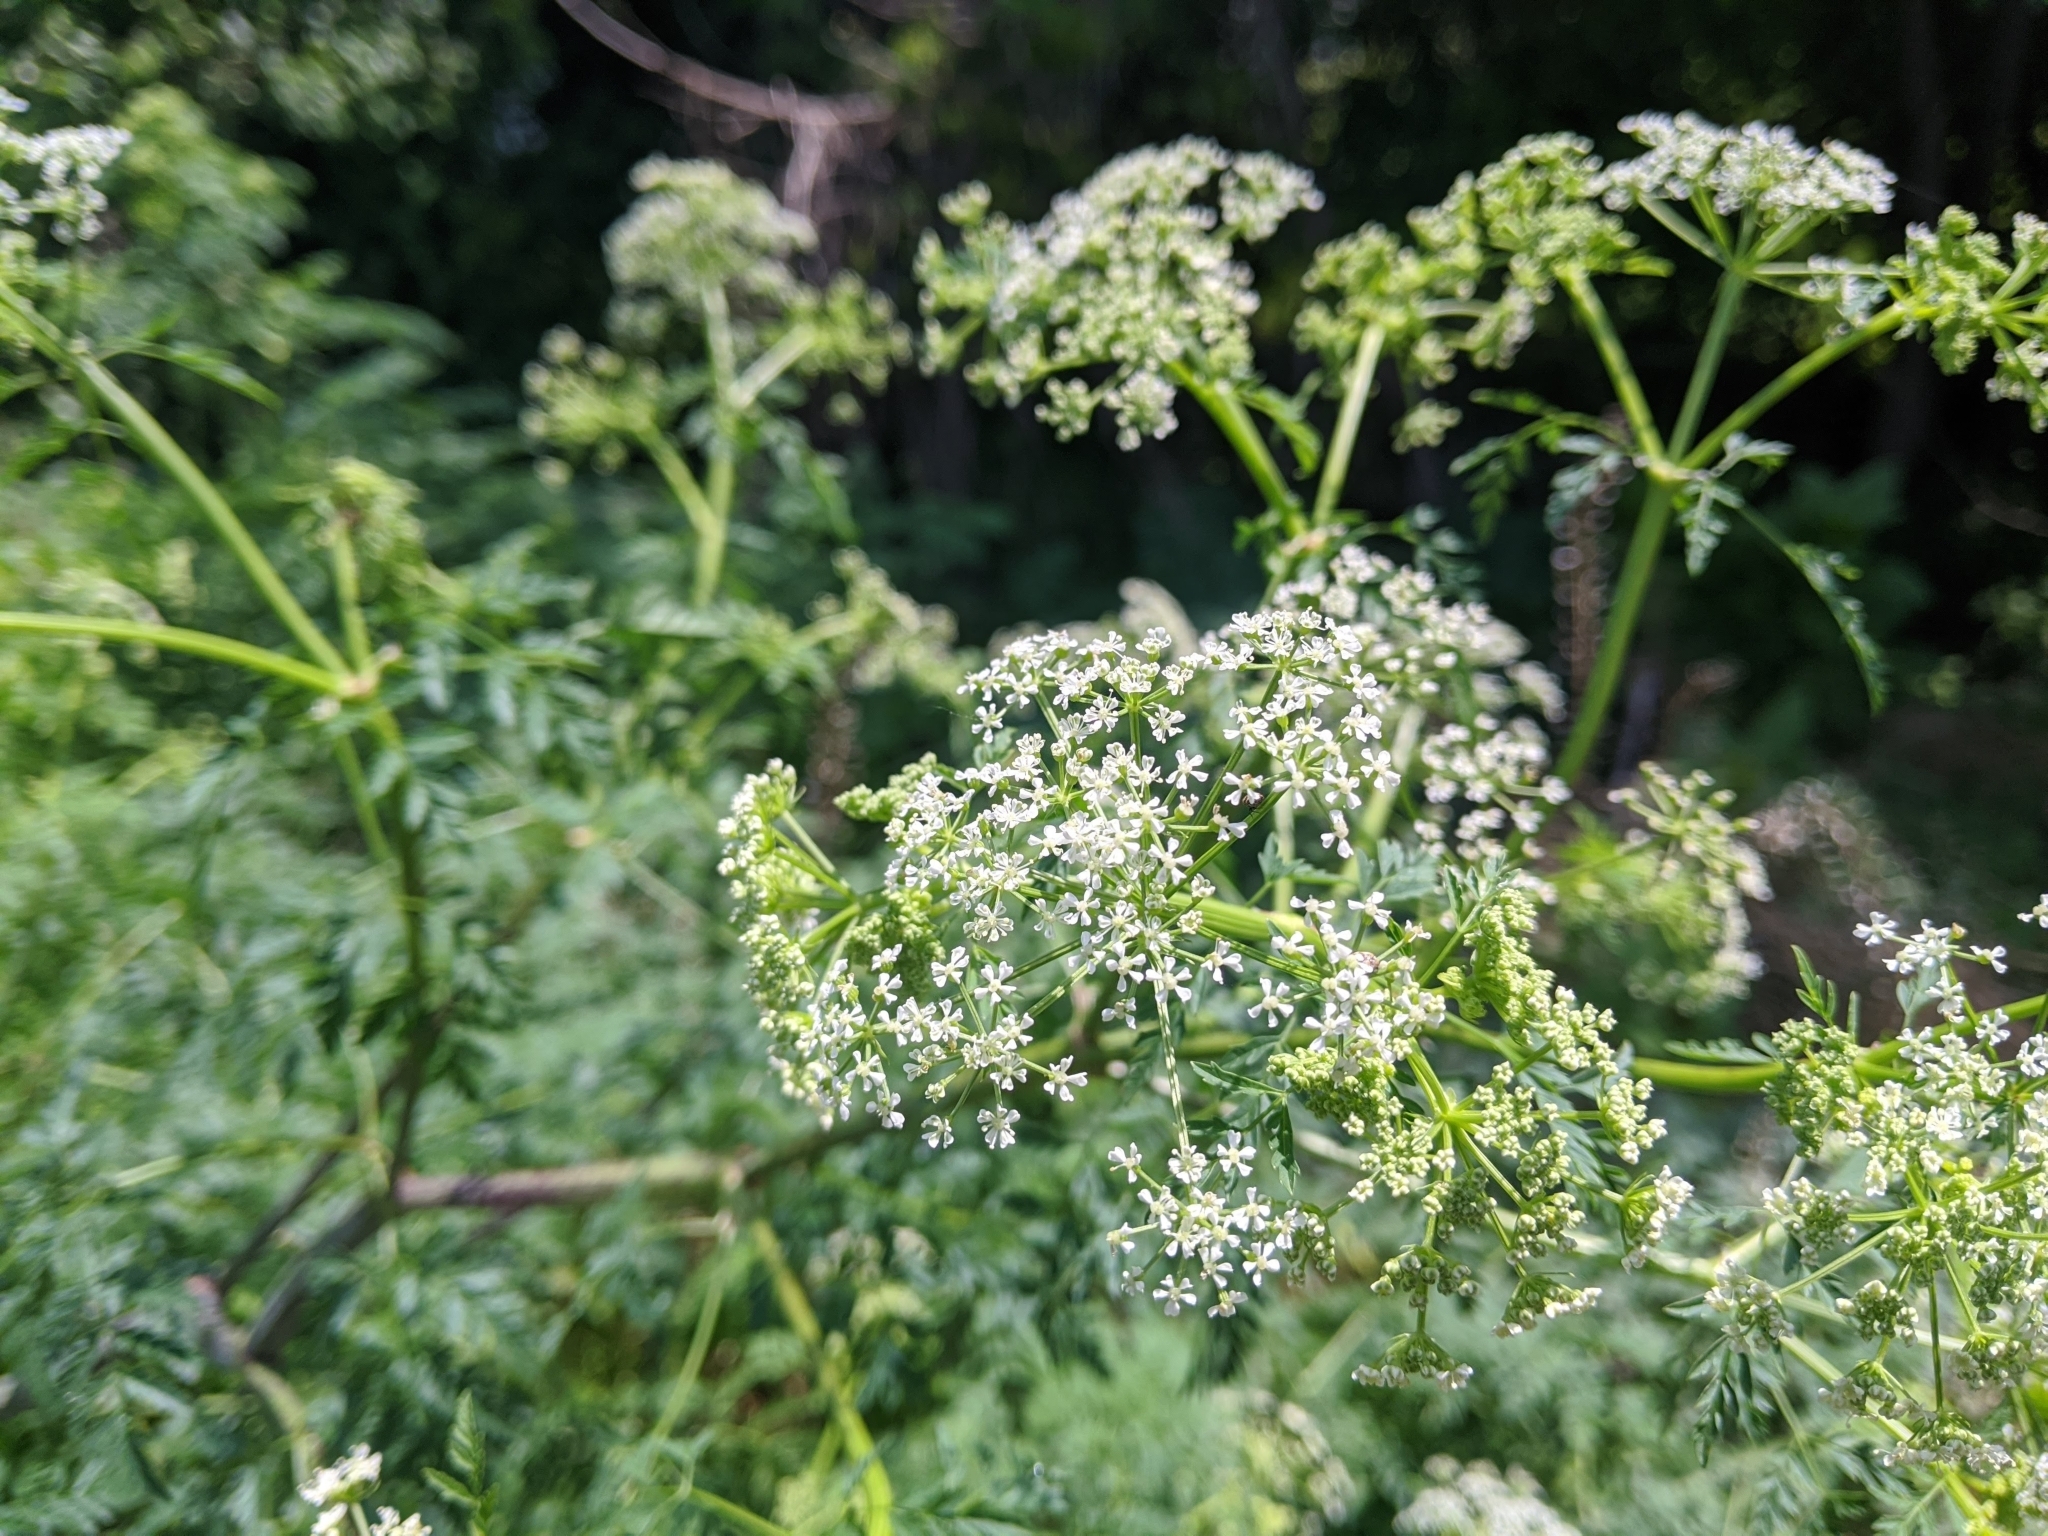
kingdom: Plantae
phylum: Tracheophyta
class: Magnoliopsida
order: Apiales
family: Apiaceae
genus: Conium
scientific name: Conium maculatum
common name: Hemlock
